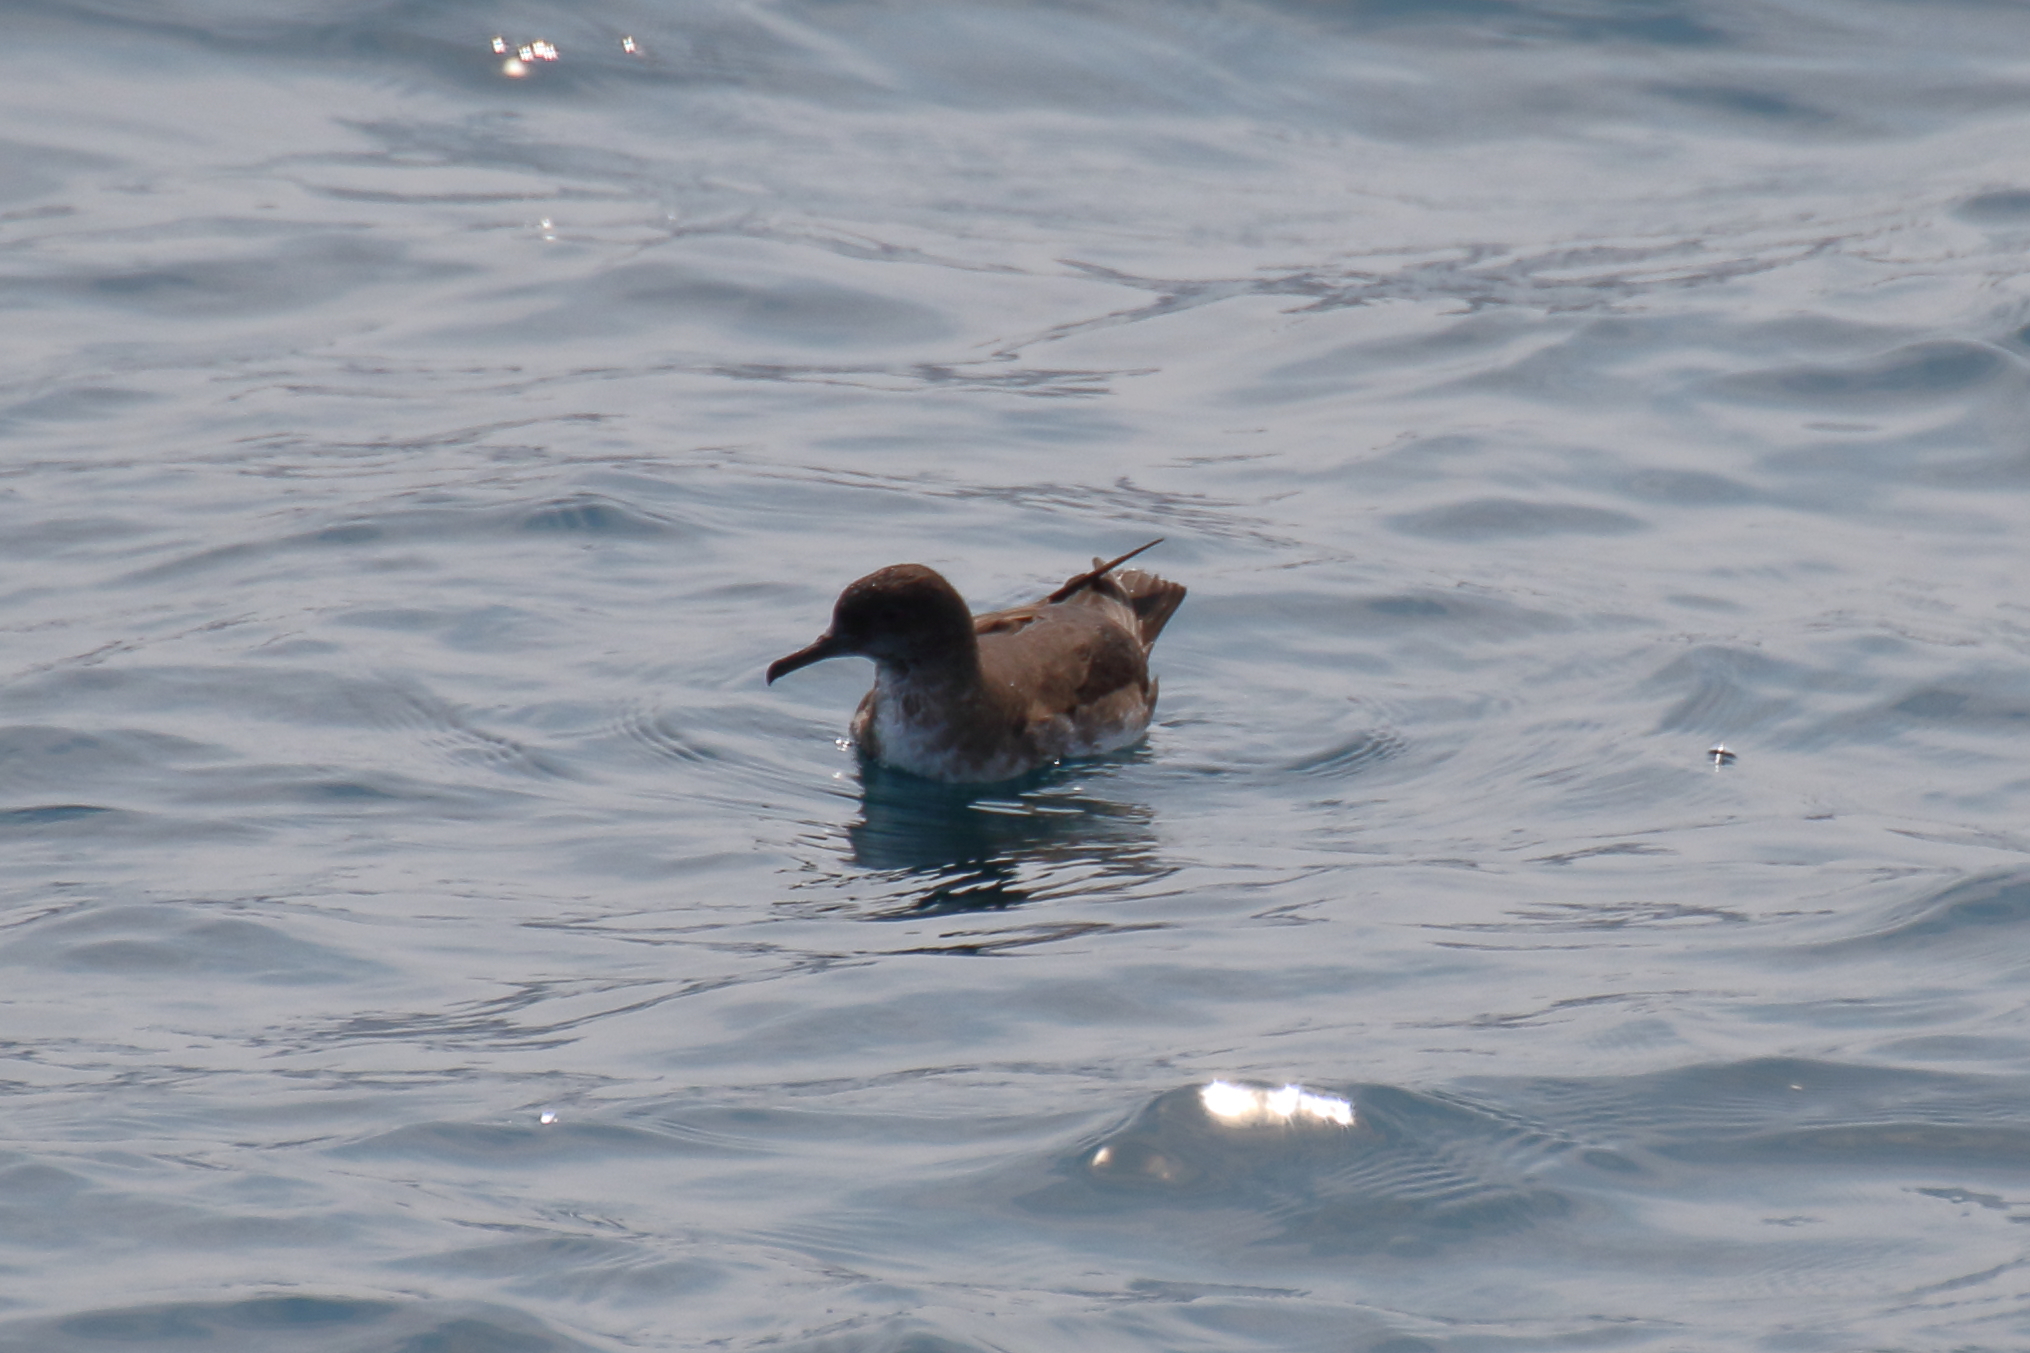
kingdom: Animalia
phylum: Chordata
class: Aves
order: Procellariiformes
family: Procellariidae
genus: Puffinus
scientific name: Puffinus huttoni
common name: Hutton's shearwater
